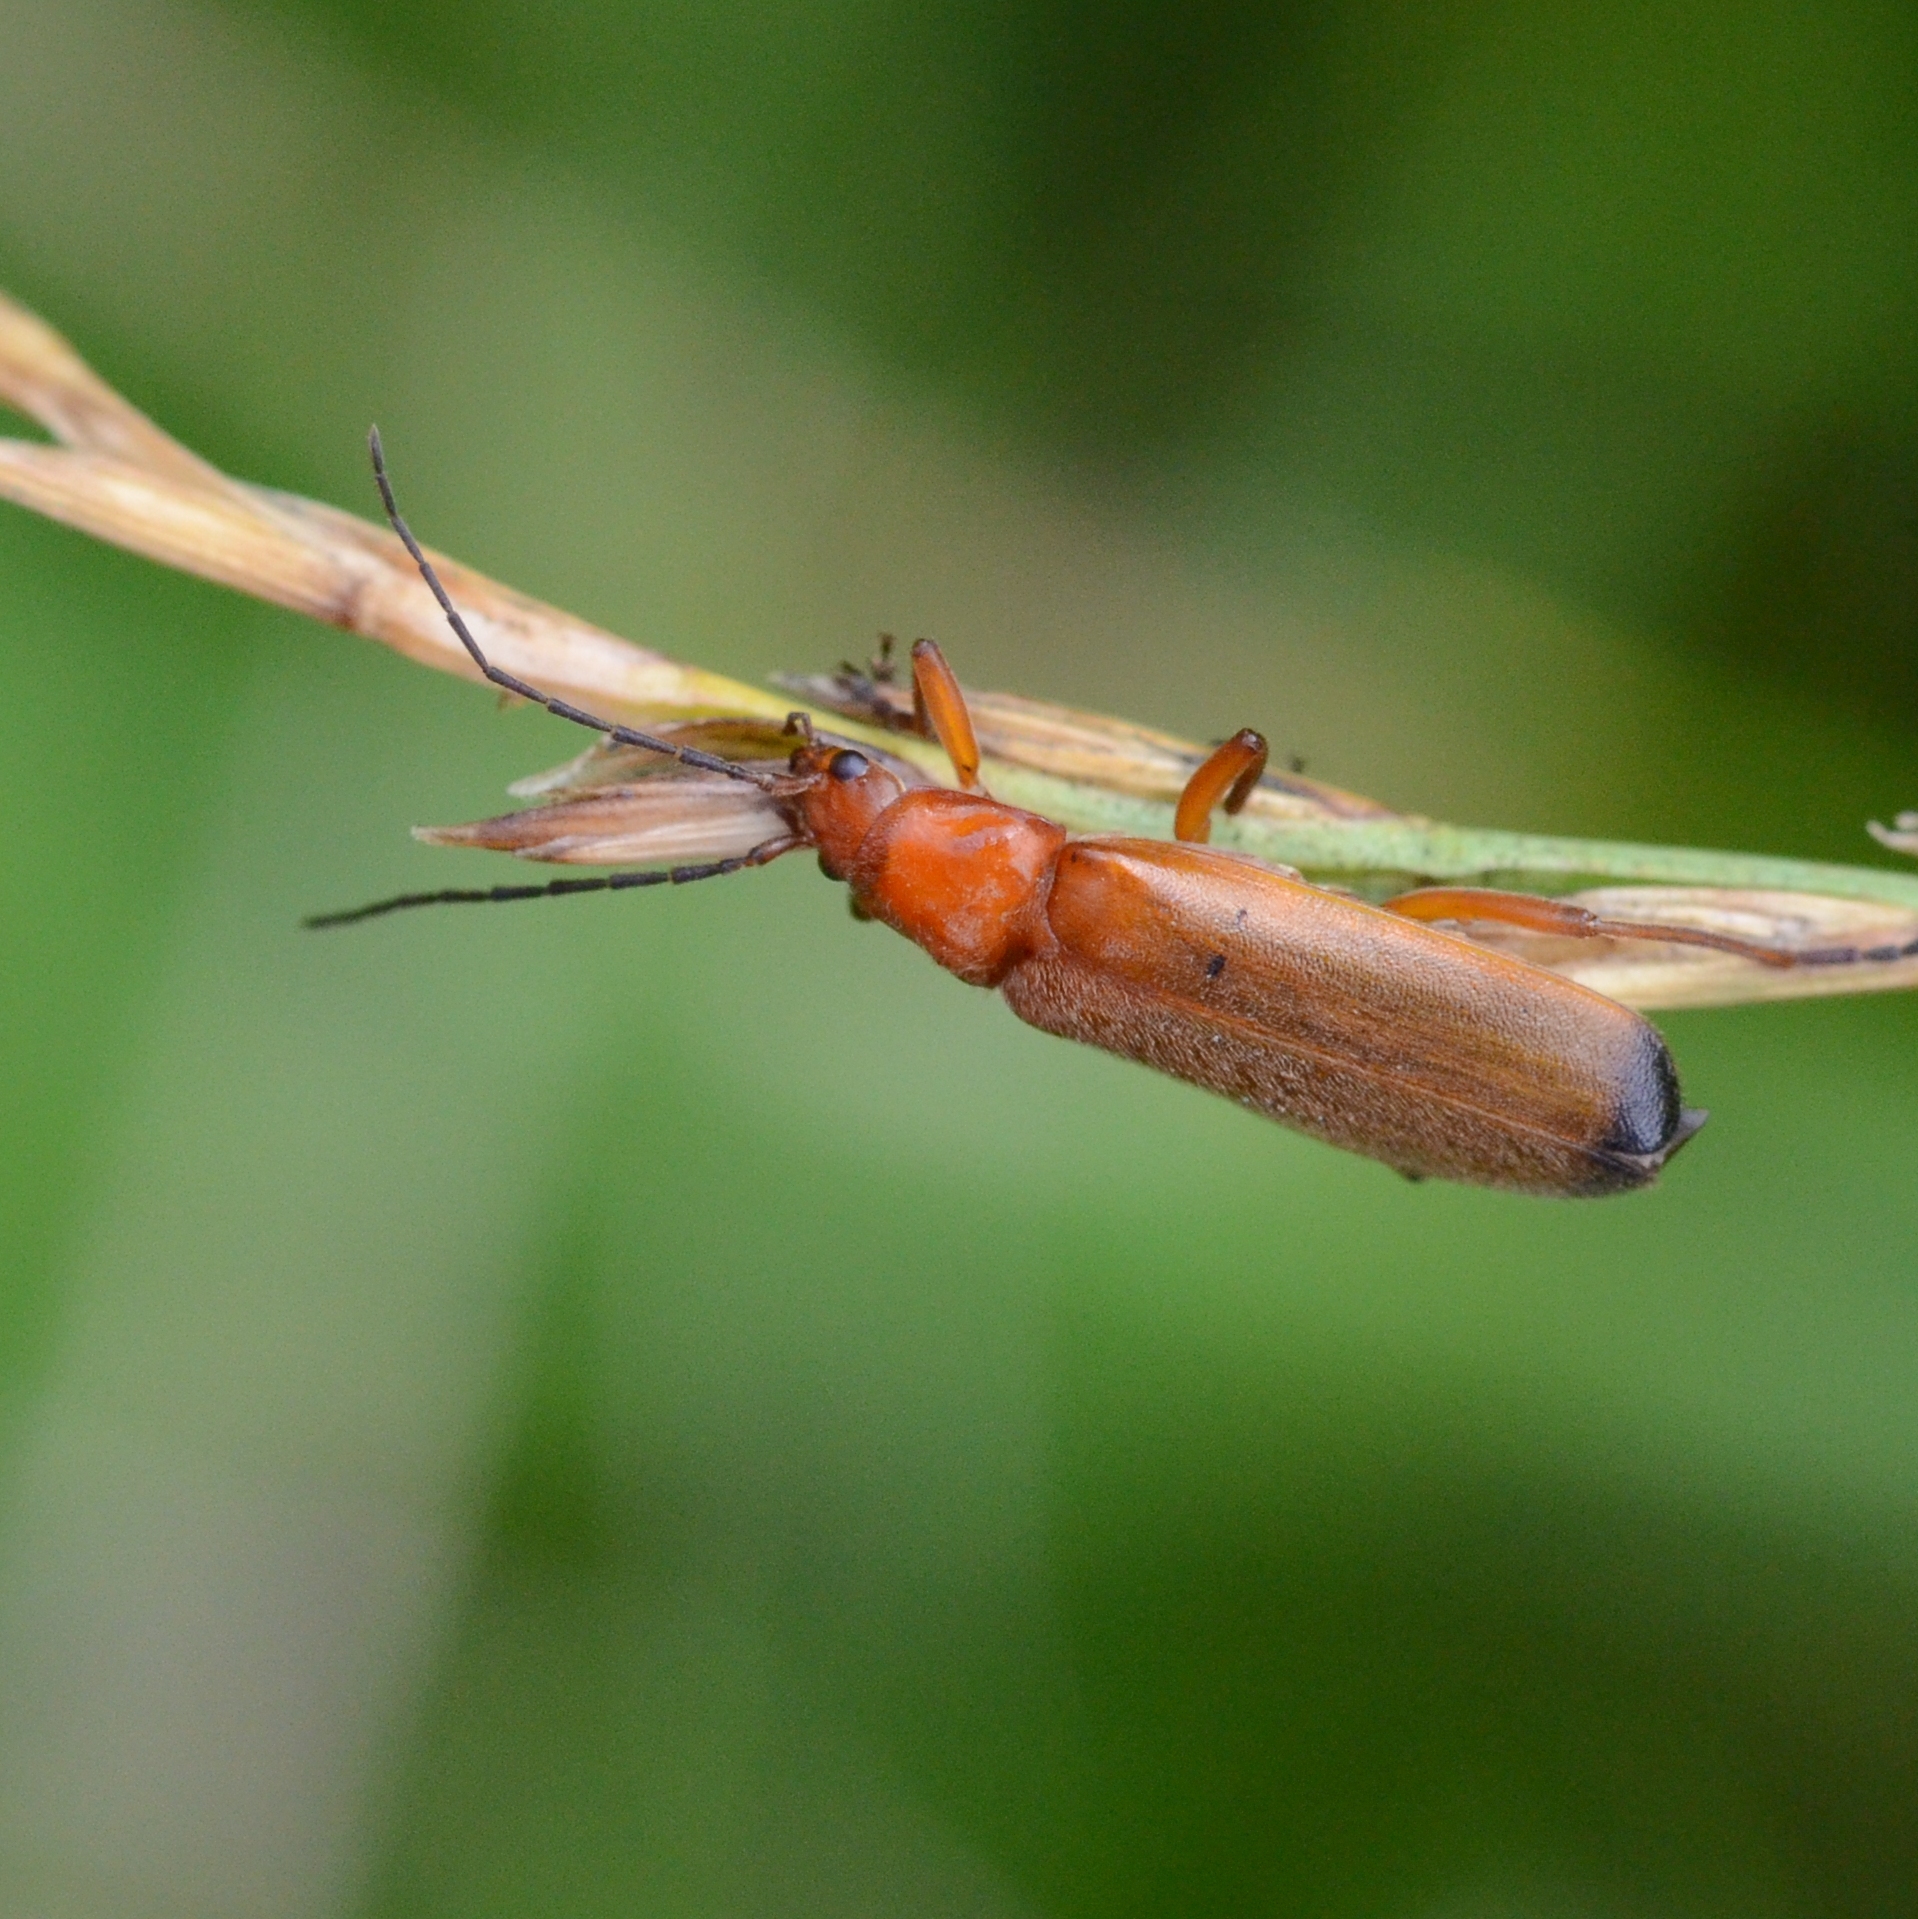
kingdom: Animalia
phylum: Arthropoda
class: Insecta
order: Coleoptera
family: Cantharidae
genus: Rhagonycha
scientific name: Rhagonycha fulva
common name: Common red soldier beetle
